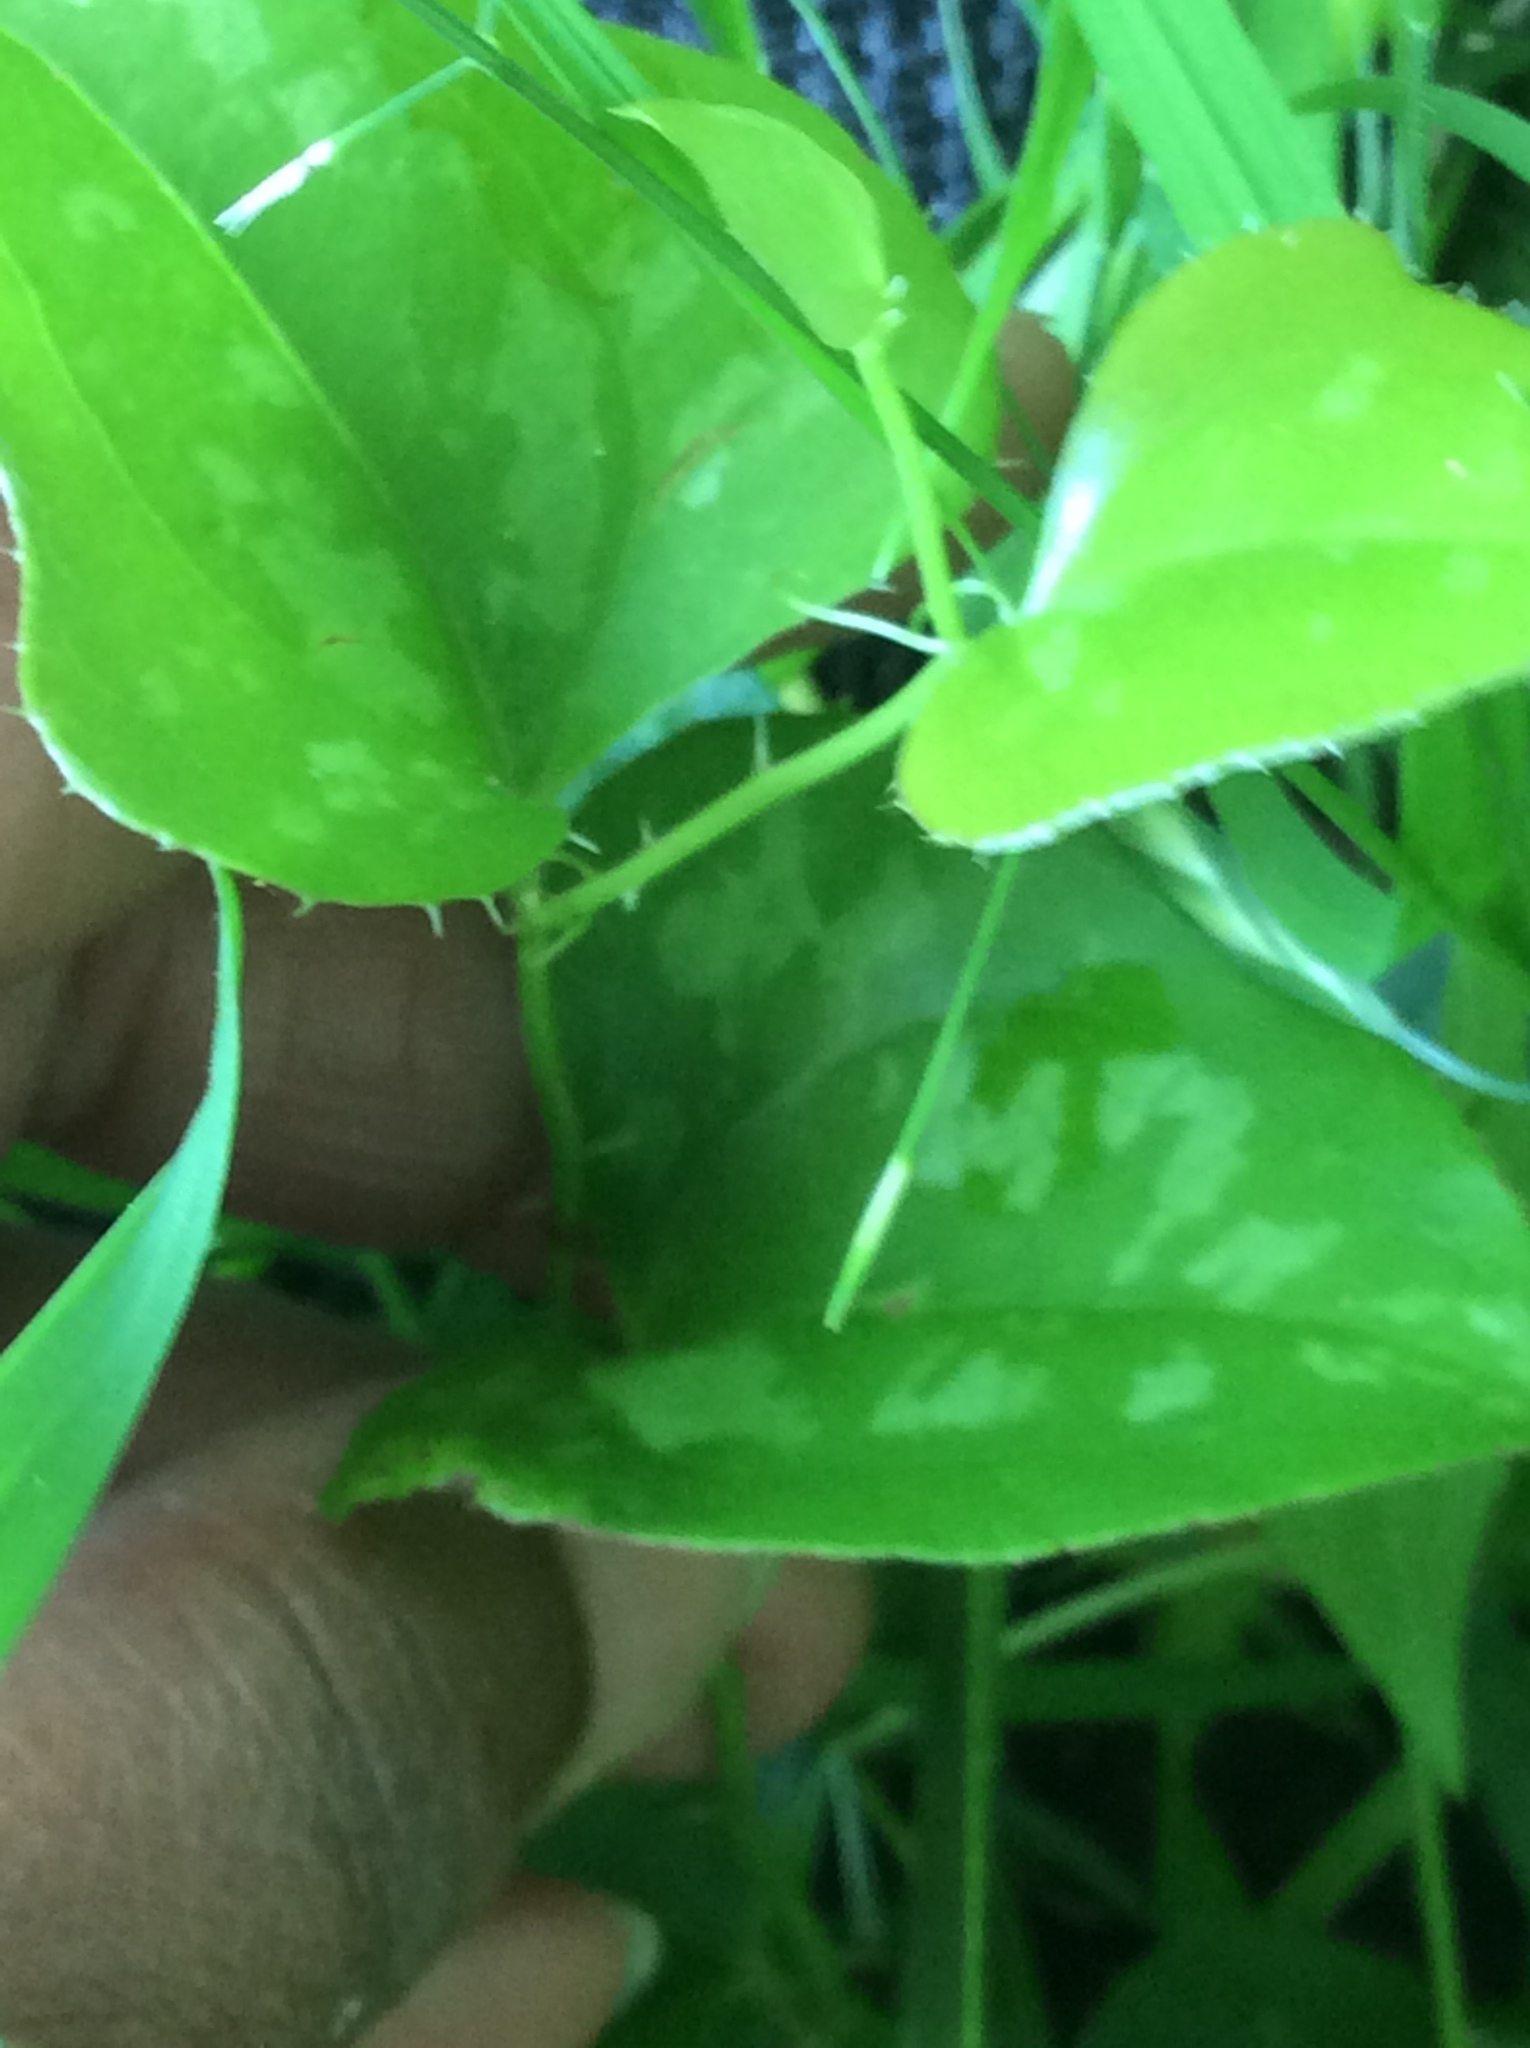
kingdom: Plantae
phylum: Tracheophyta
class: Liliopsida
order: Liliales
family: Smilacaceae
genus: Smilax
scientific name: Smilax bona-nox
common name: Catbrier
